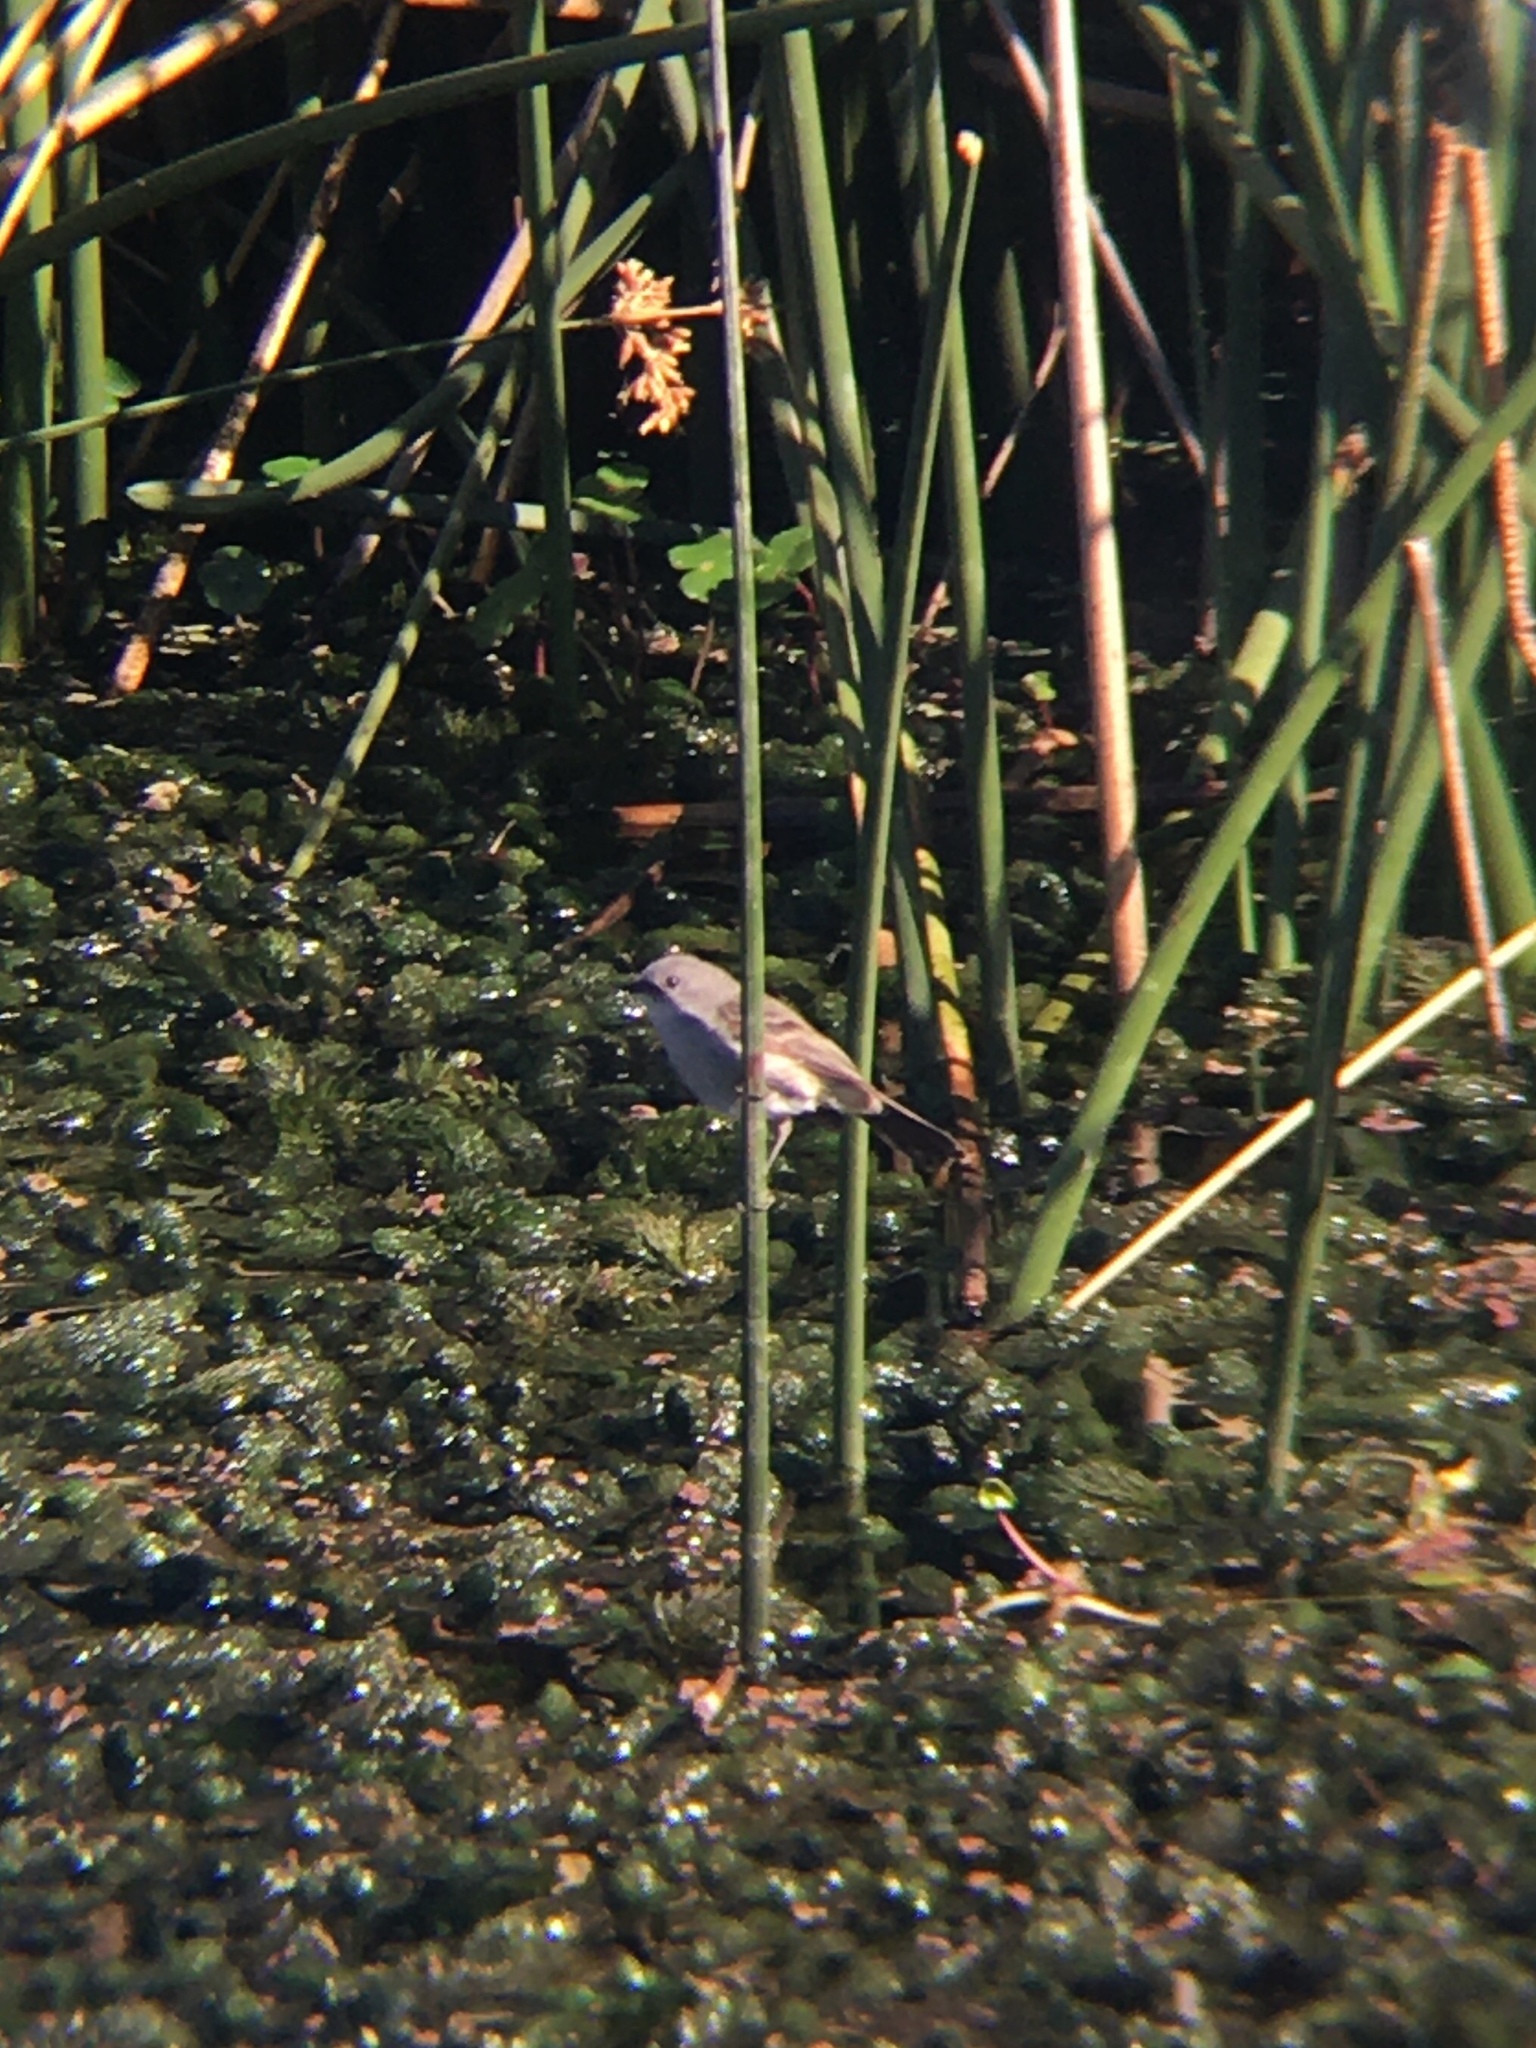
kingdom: Animalia
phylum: Chordata
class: Aves
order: Passeriformes
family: Tyrannidae
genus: Serpophaga
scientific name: Serpophaga nigricans
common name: Sooty tyrannulet
